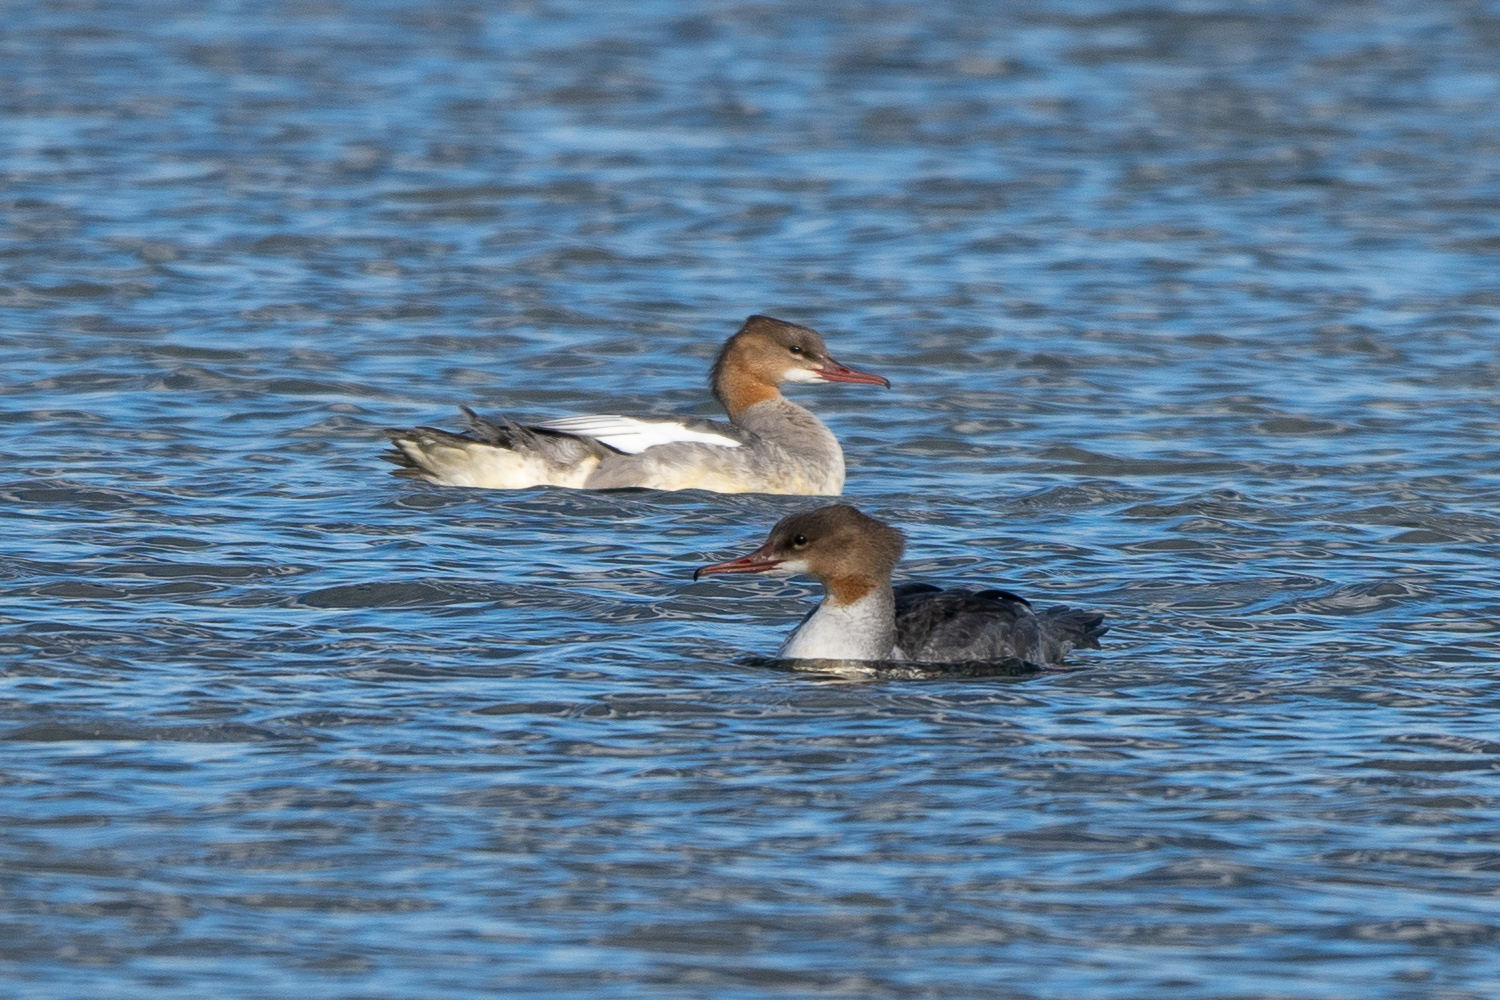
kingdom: Animalia
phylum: Chordata
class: Aves
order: Anseriformes
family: Anatidae
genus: Mergus
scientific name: Mergus merganser
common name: Common merganser
